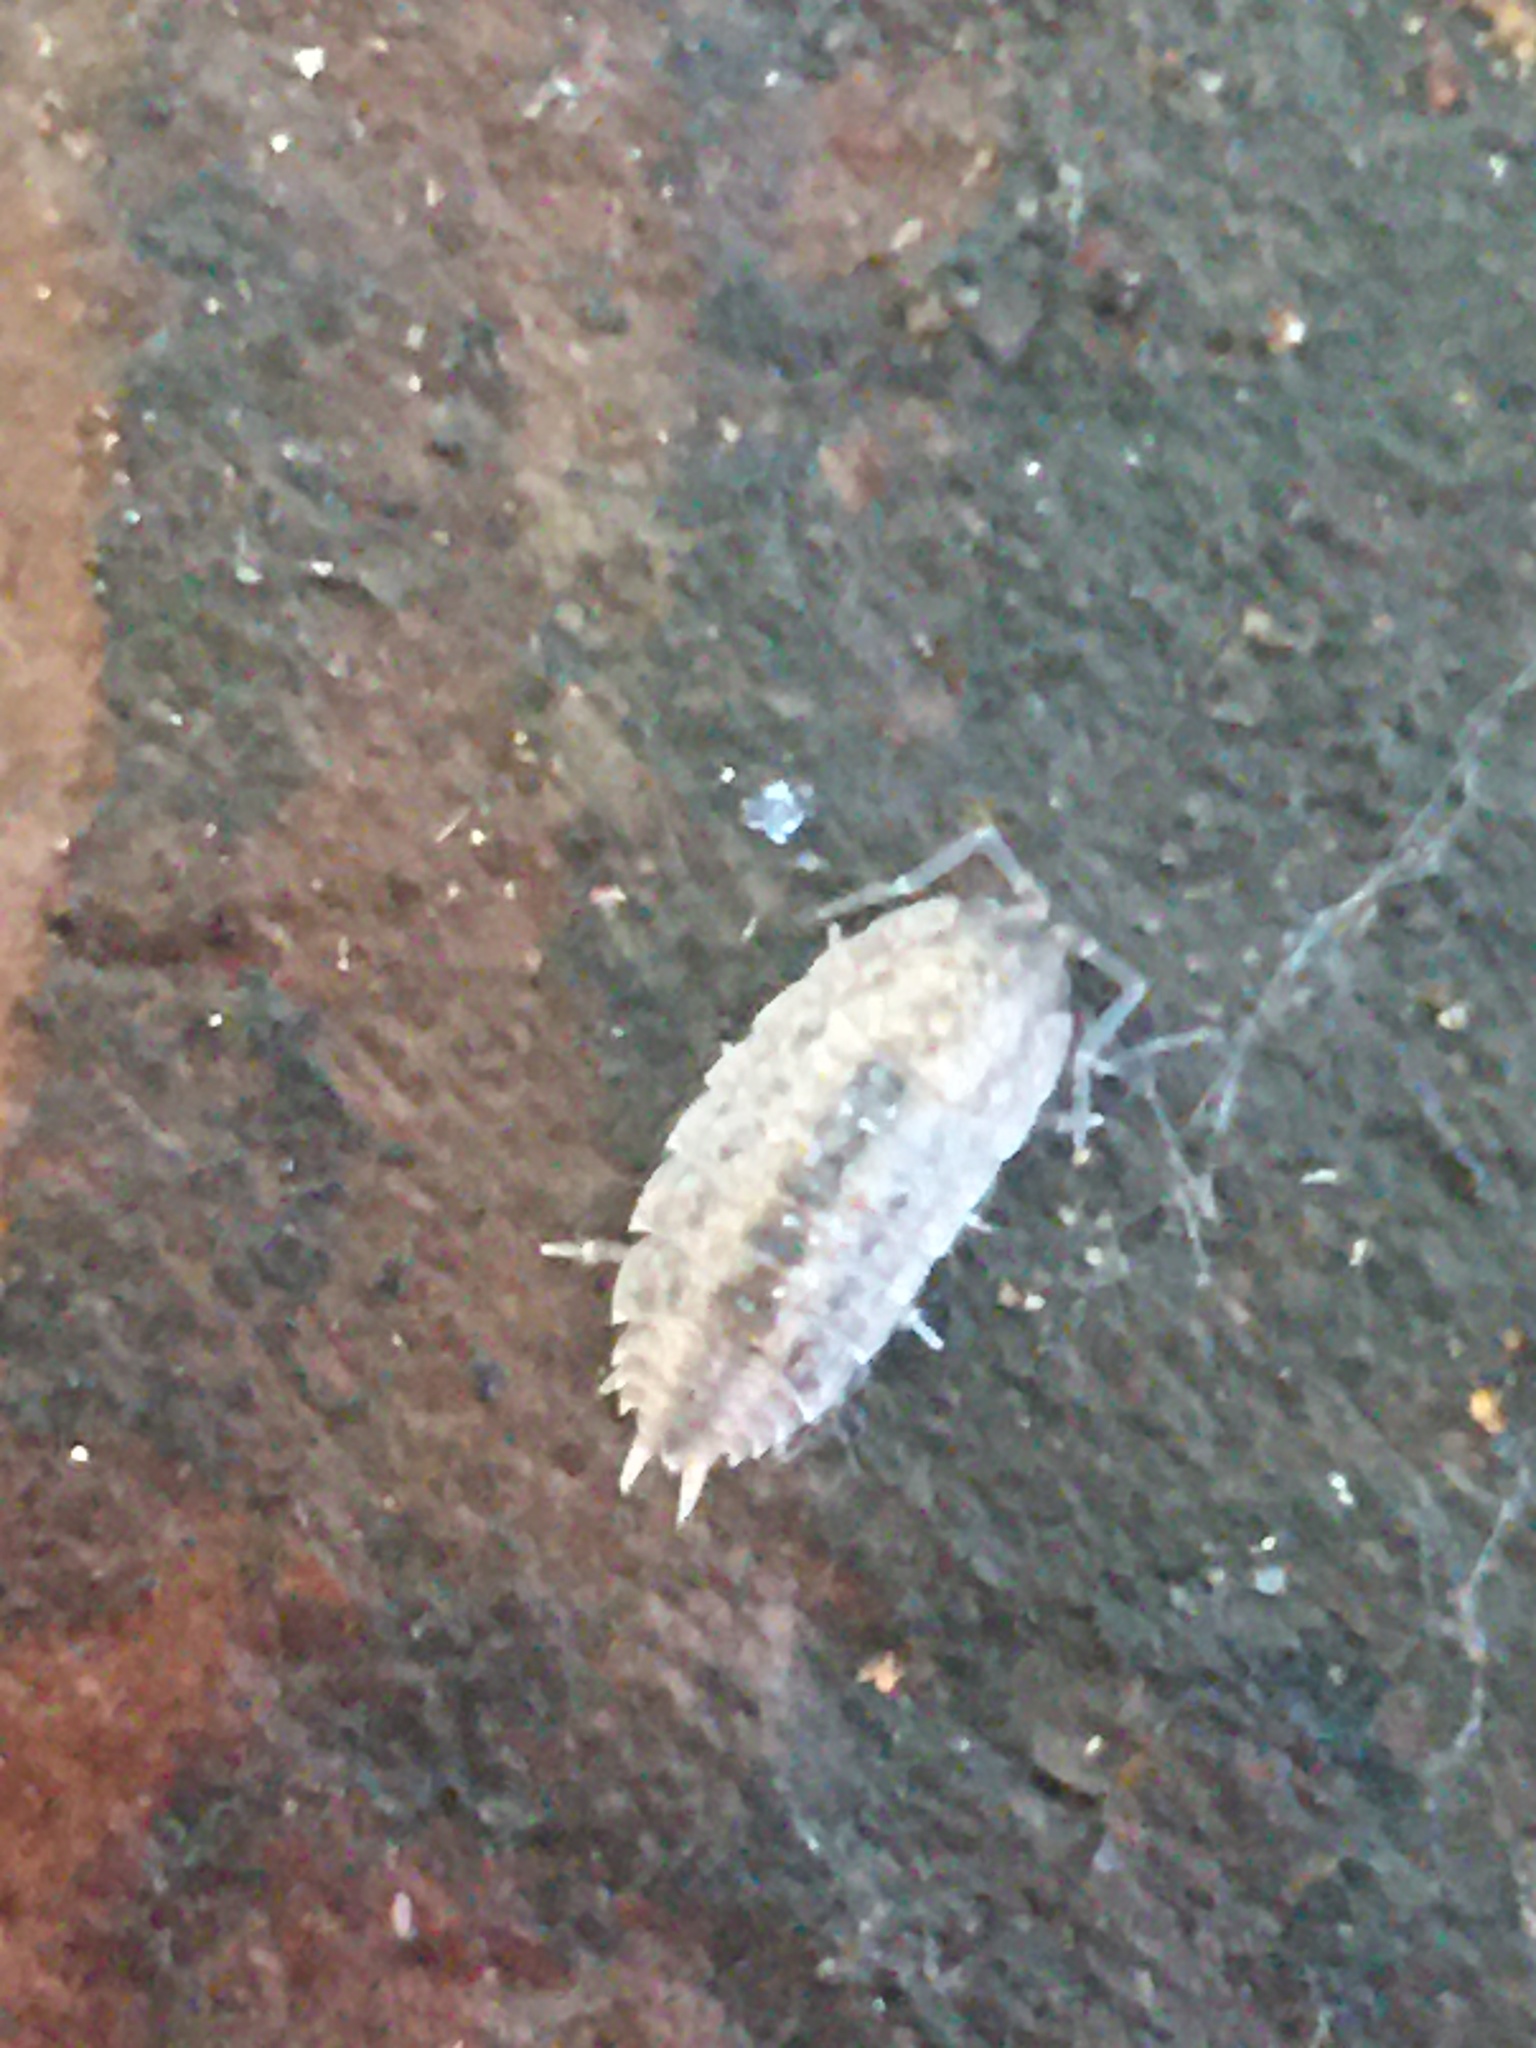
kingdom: Animalia
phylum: Arthropoda
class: Malacostraca
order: Isopoda
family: Porcellionidae
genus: Porcellionides
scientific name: Porcellionides virgatus
